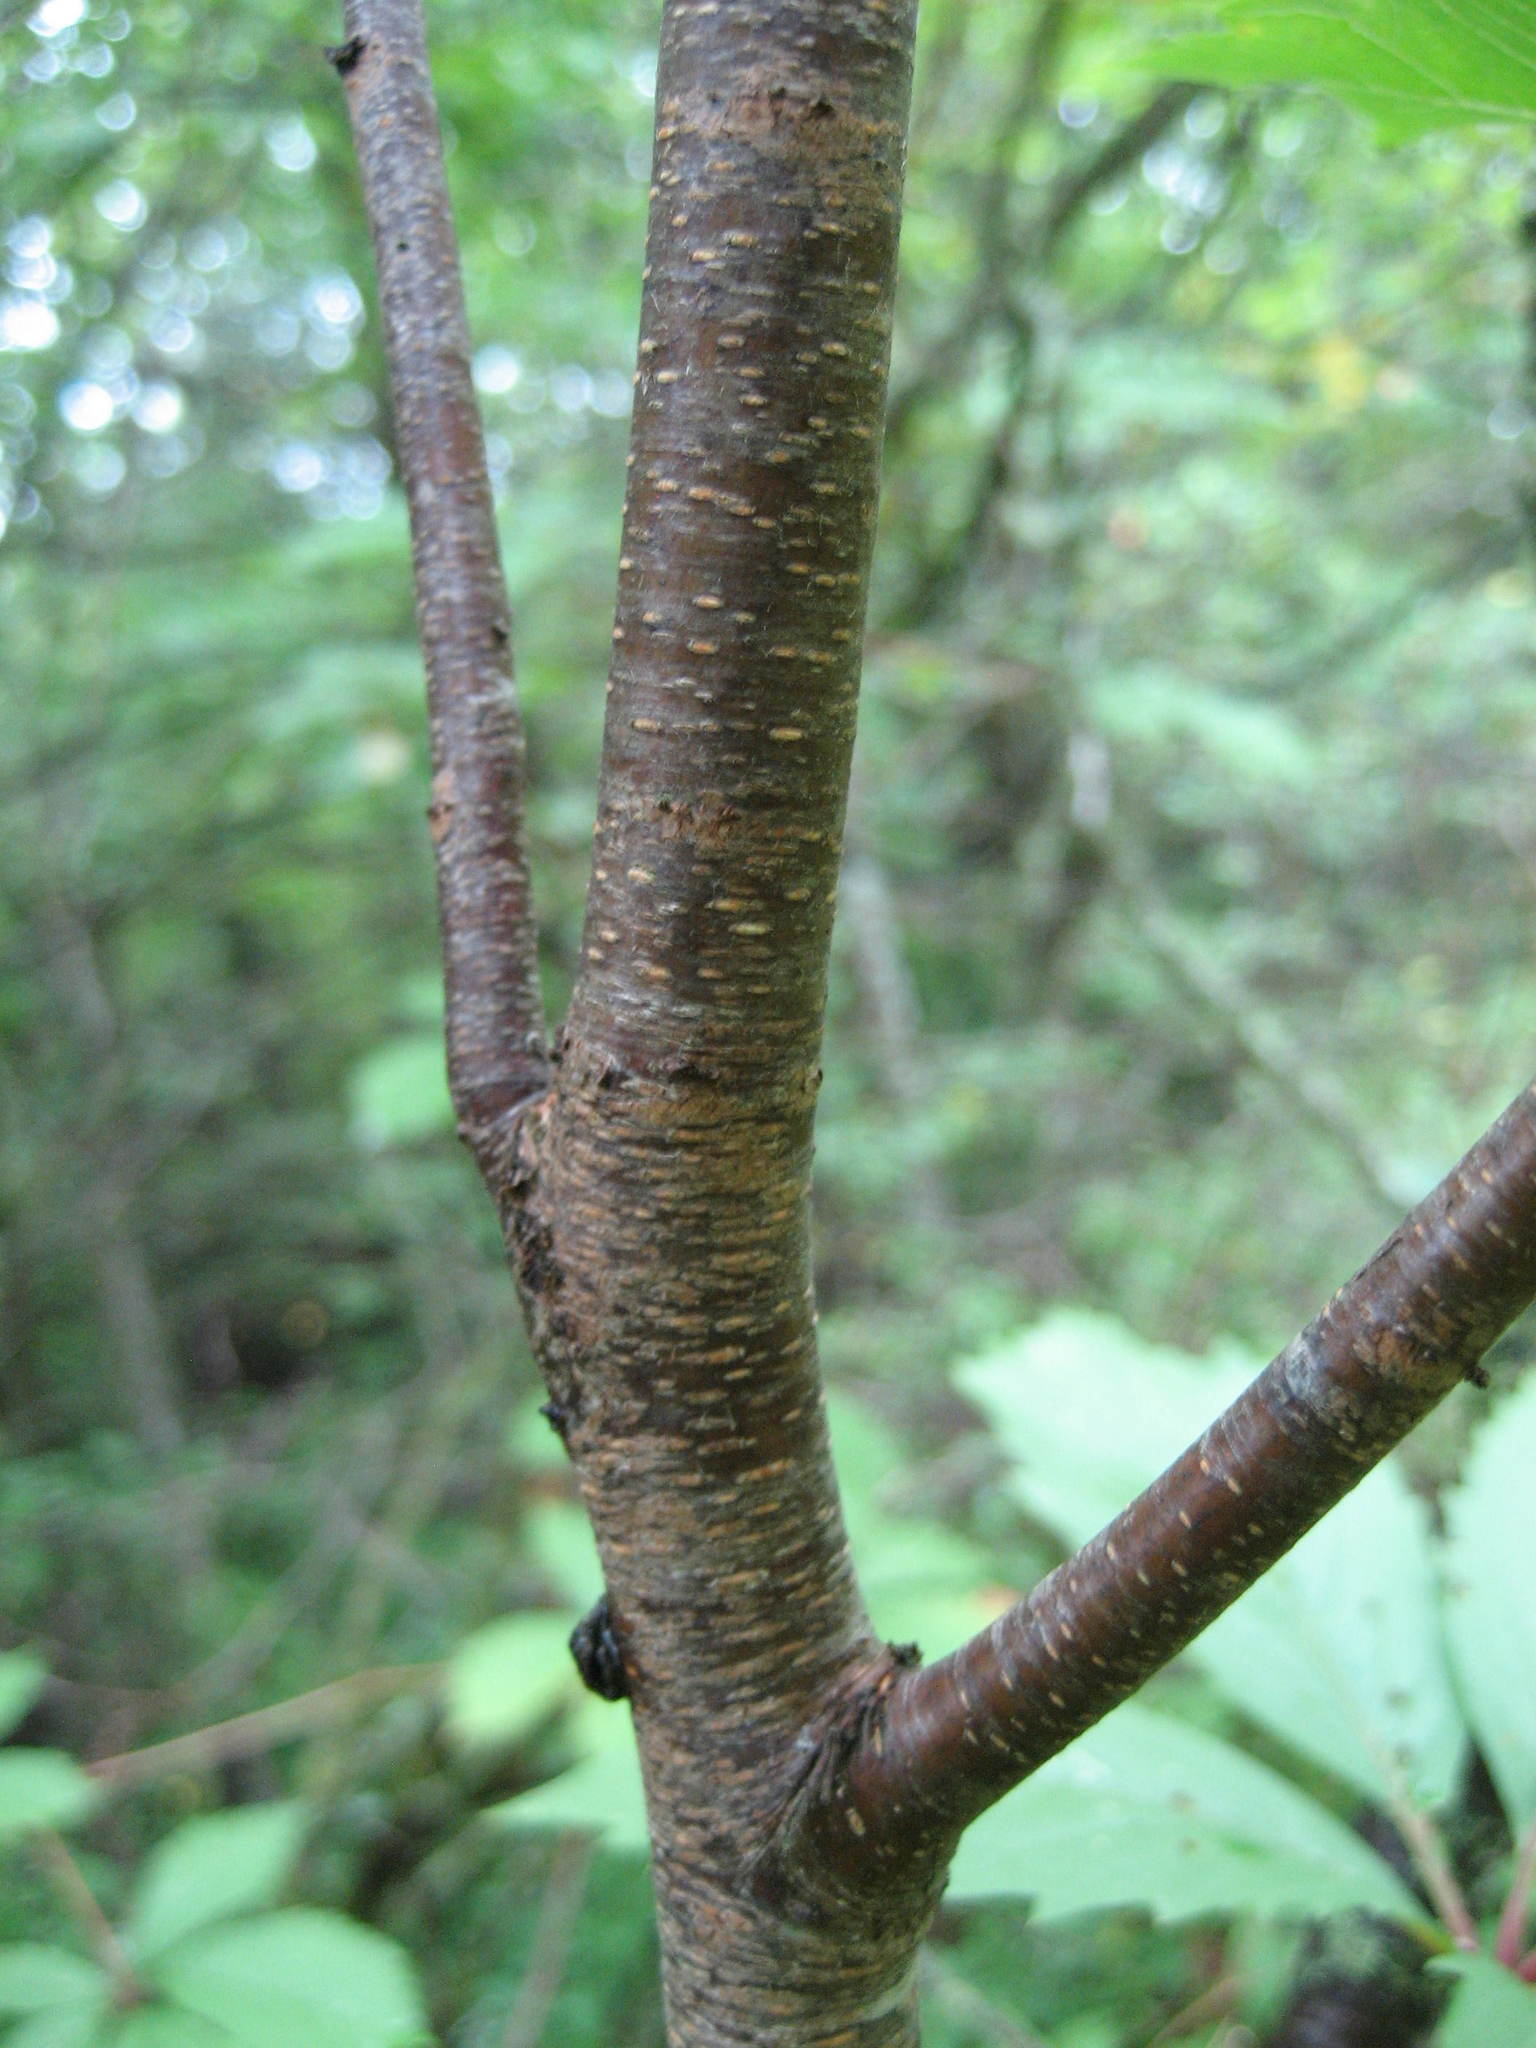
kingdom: Plantae
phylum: Tracheophyta
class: Magnoliopsida
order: Rosales
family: Rosaceae
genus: Prunus
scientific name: Prunus serotina
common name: Black cherry
